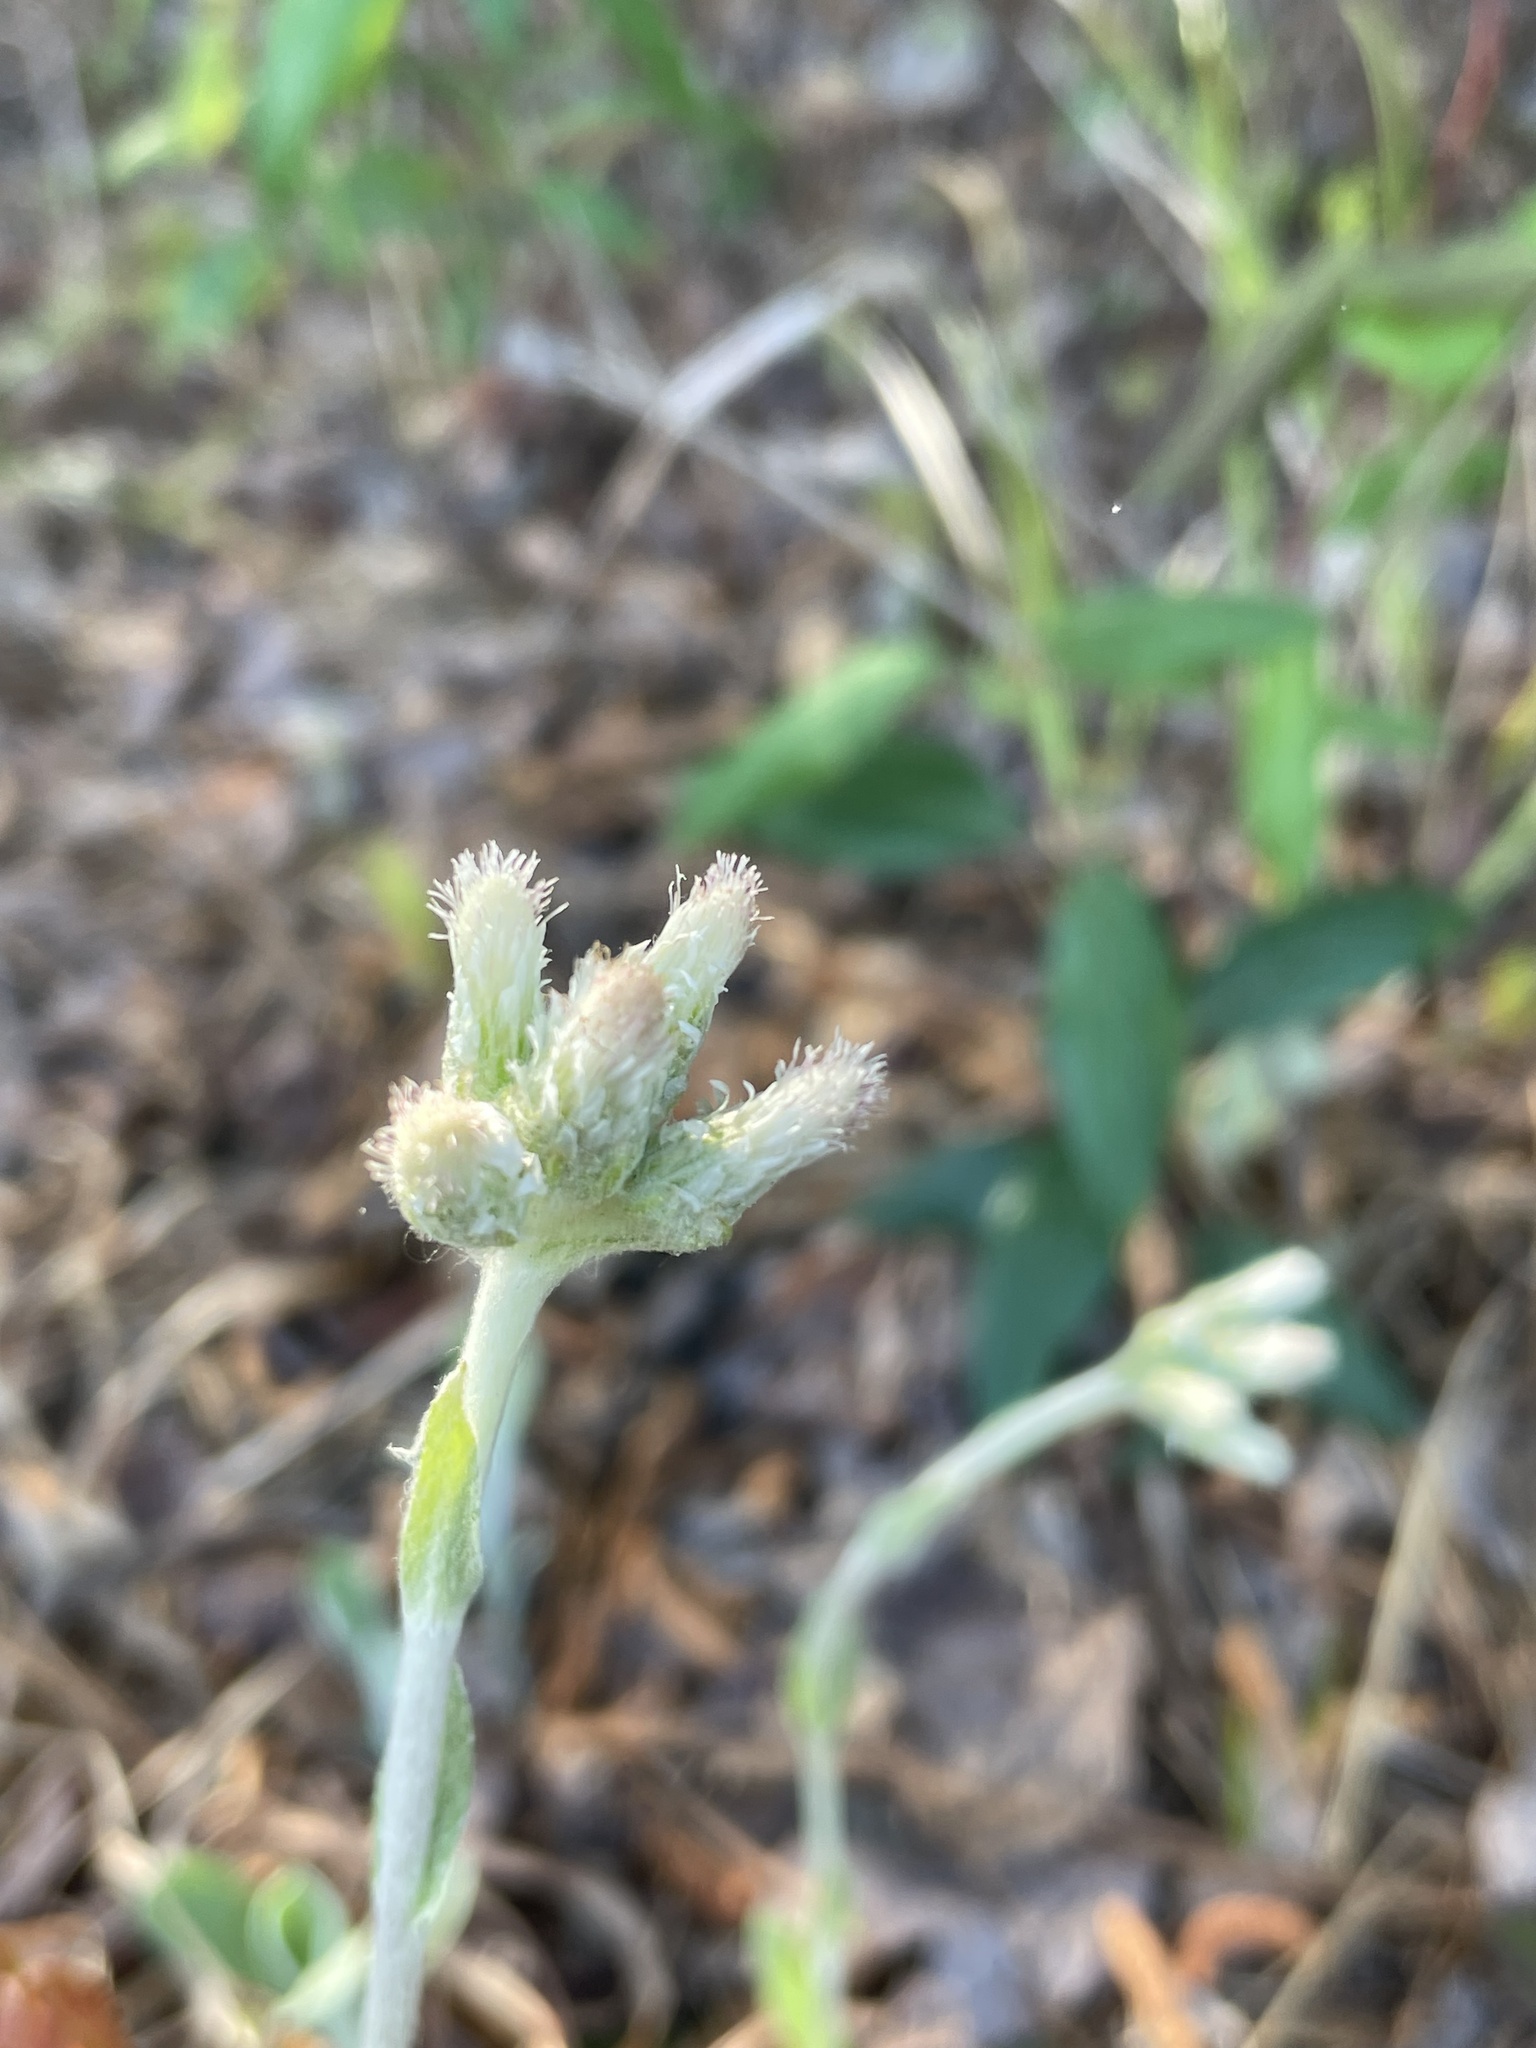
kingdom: Plantae
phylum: Tracheophyta
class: Magnoliopsida
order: Asterales
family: Asteraceae
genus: Antennaria
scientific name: Antennaria parlinii
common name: Parlin's pussytoes
